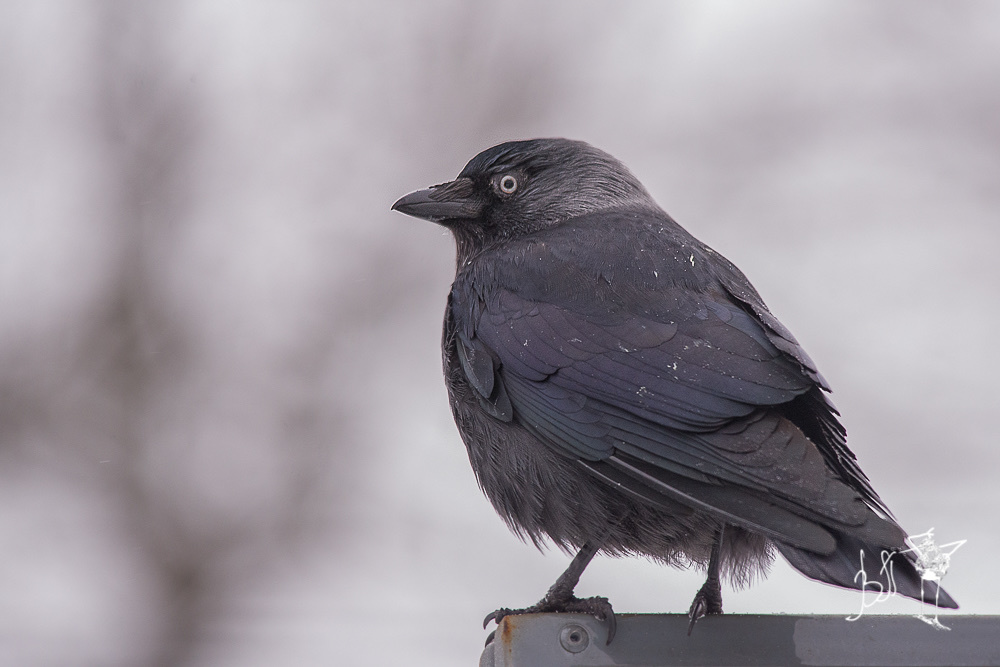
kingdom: Animalia
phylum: Chordata
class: Aves
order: Passeriformes
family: Corvidae
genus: Coloeus
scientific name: Coloeus monedula
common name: Western jackdaw
